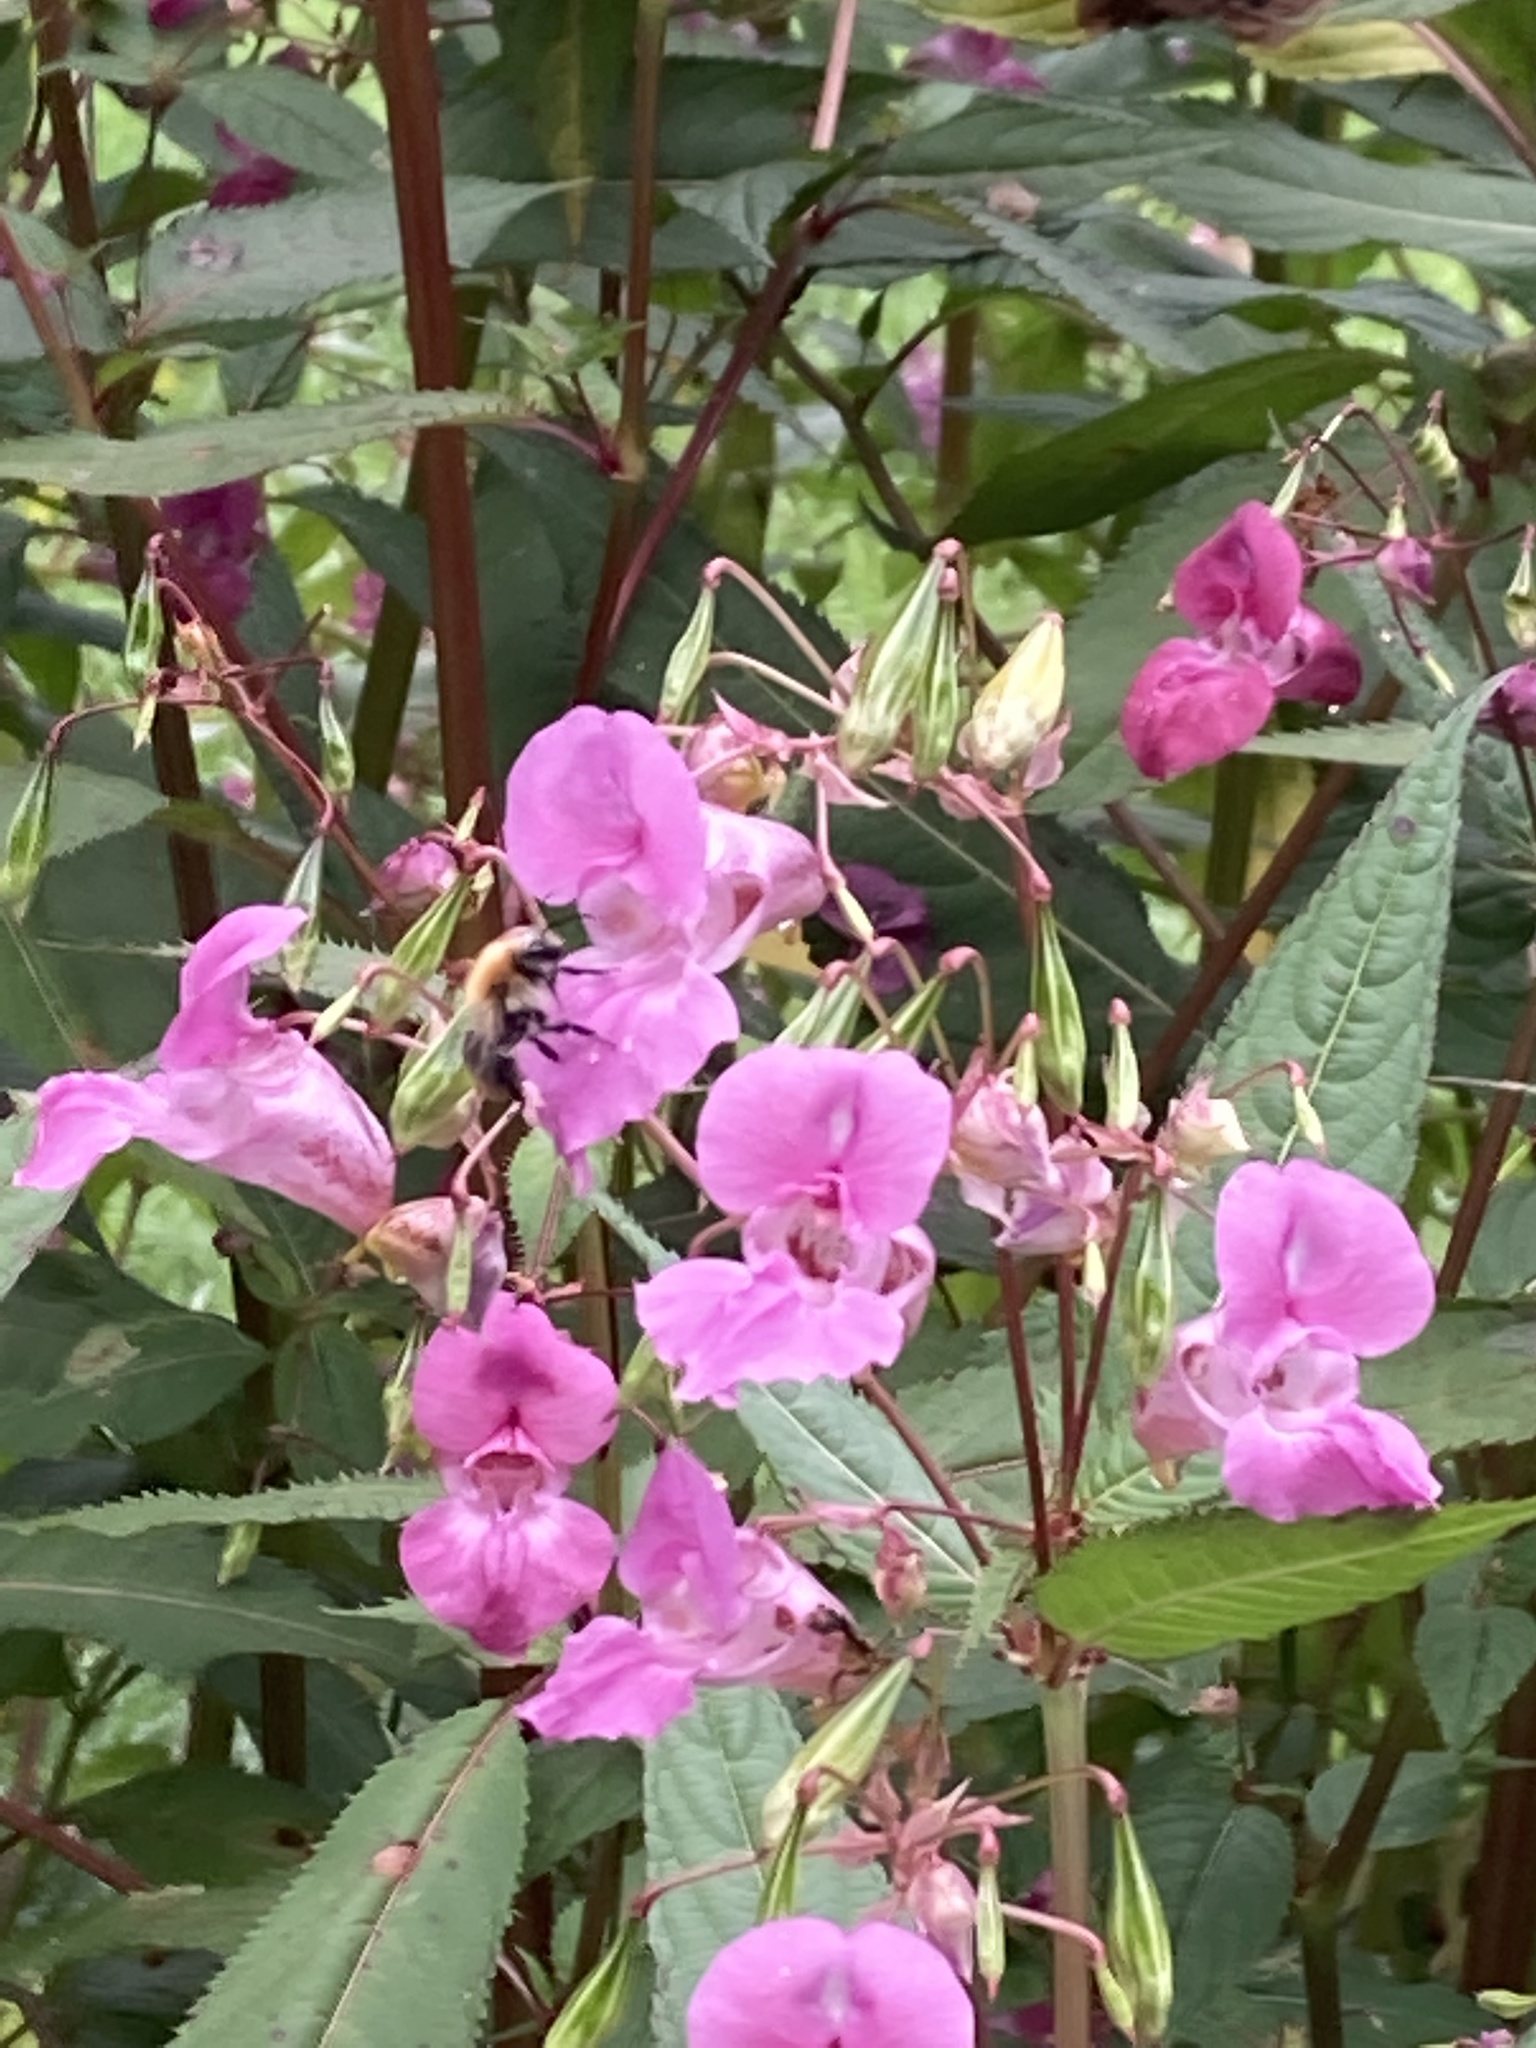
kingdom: Plantae
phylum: Tracheophyta
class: Magnoliopsida
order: Ericales
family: Balsaminaceae
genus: Impatiens
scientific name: Impatiens glandulifera
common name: Himalayan balsam
